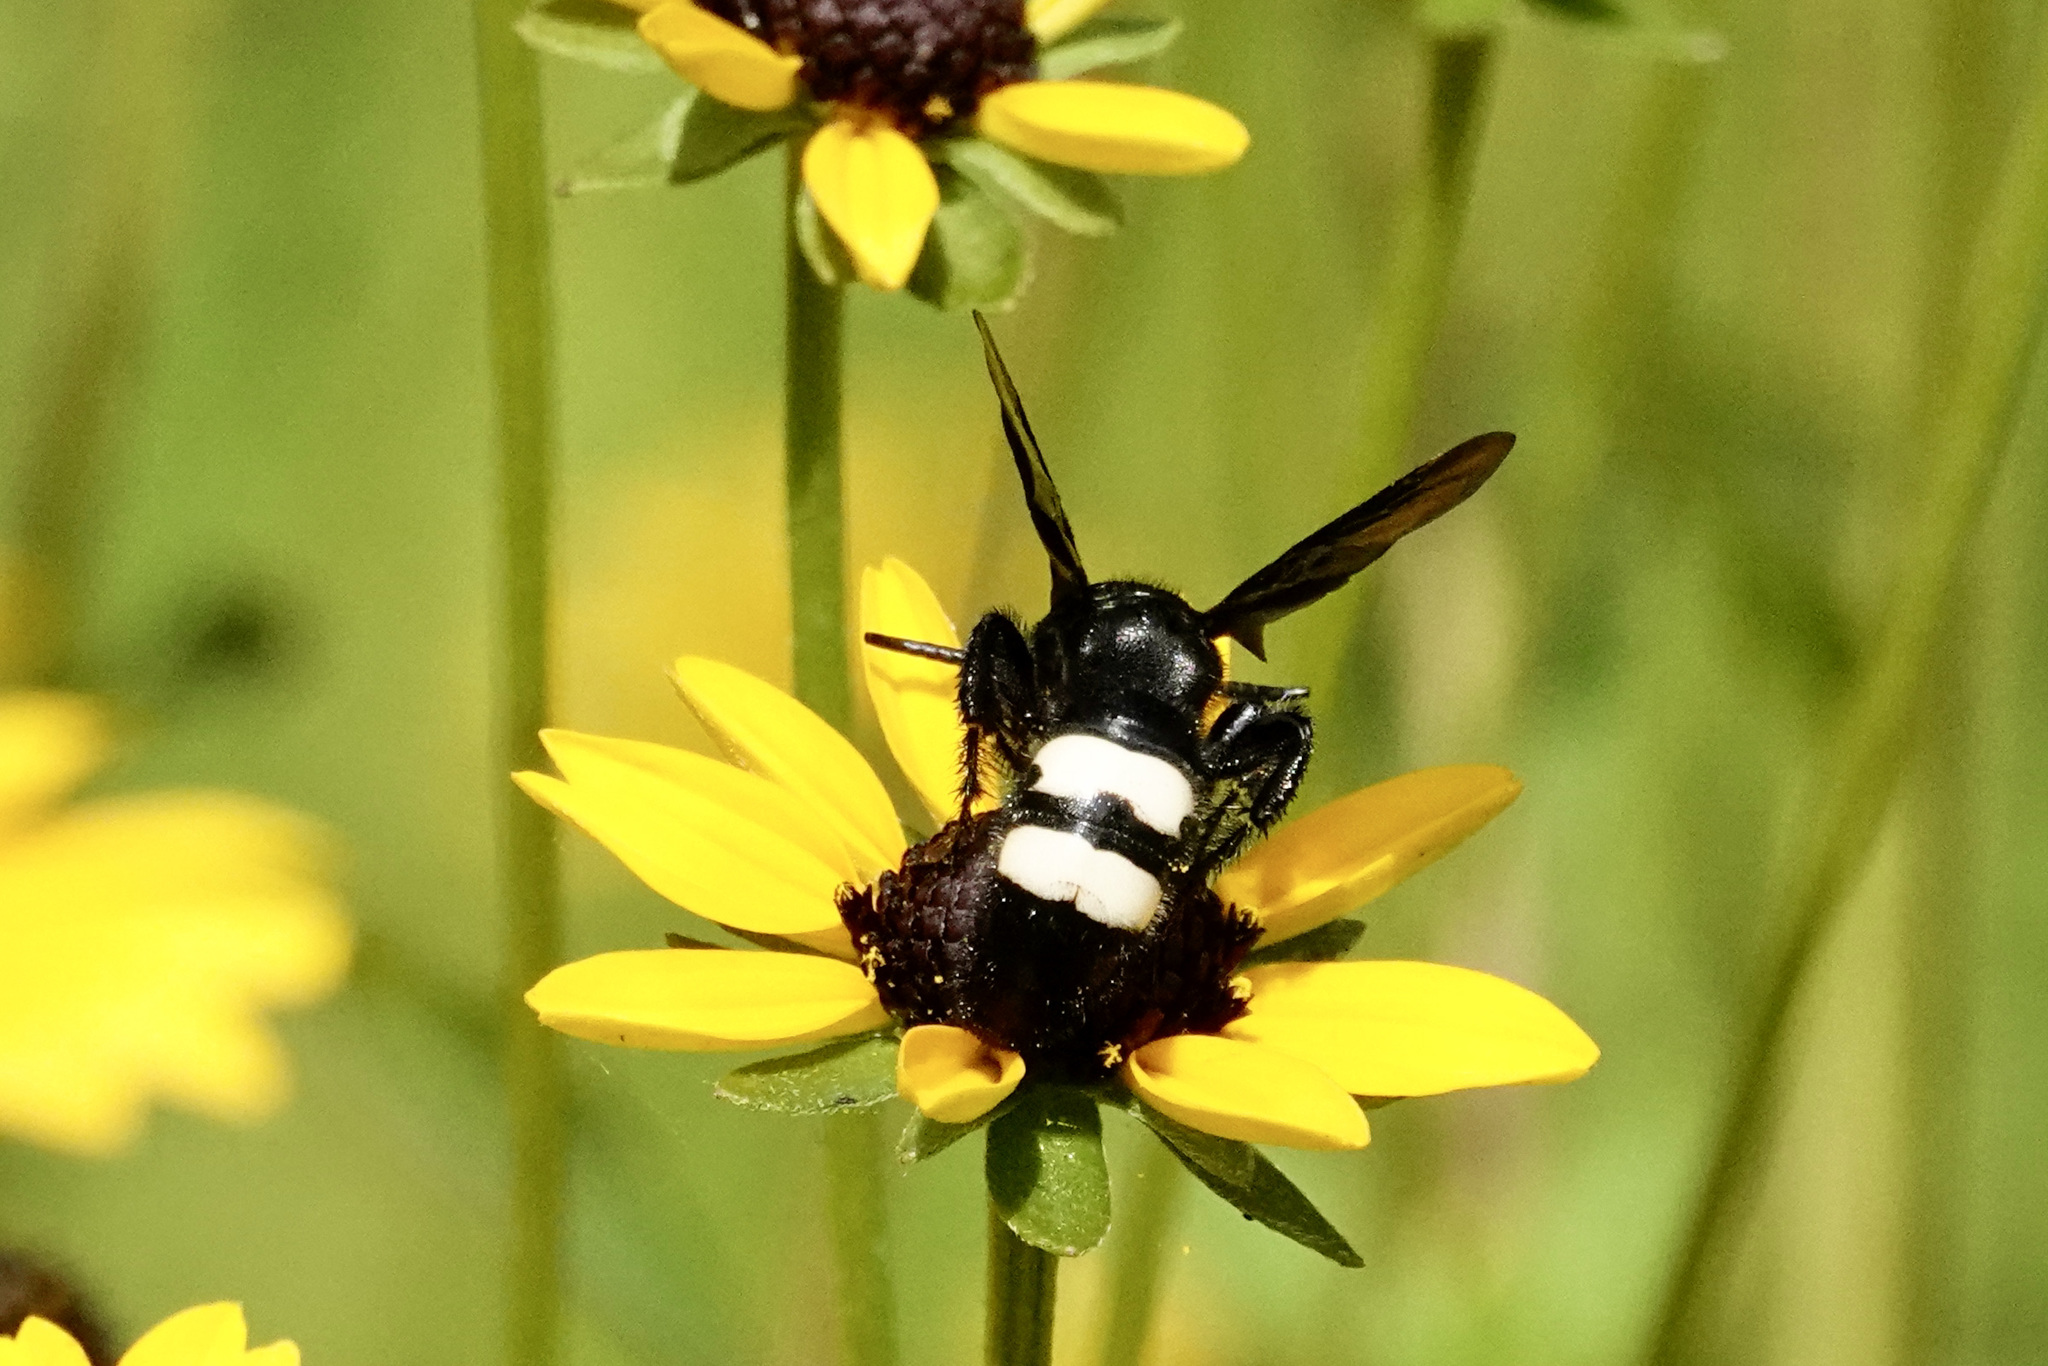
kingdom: Animalia
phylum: Arthropoda
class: Insecta
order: Hymenoptera
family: Scoliidae
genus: Scolia
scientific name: Scolia bicincta
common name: Double-banded scoliid wasp
